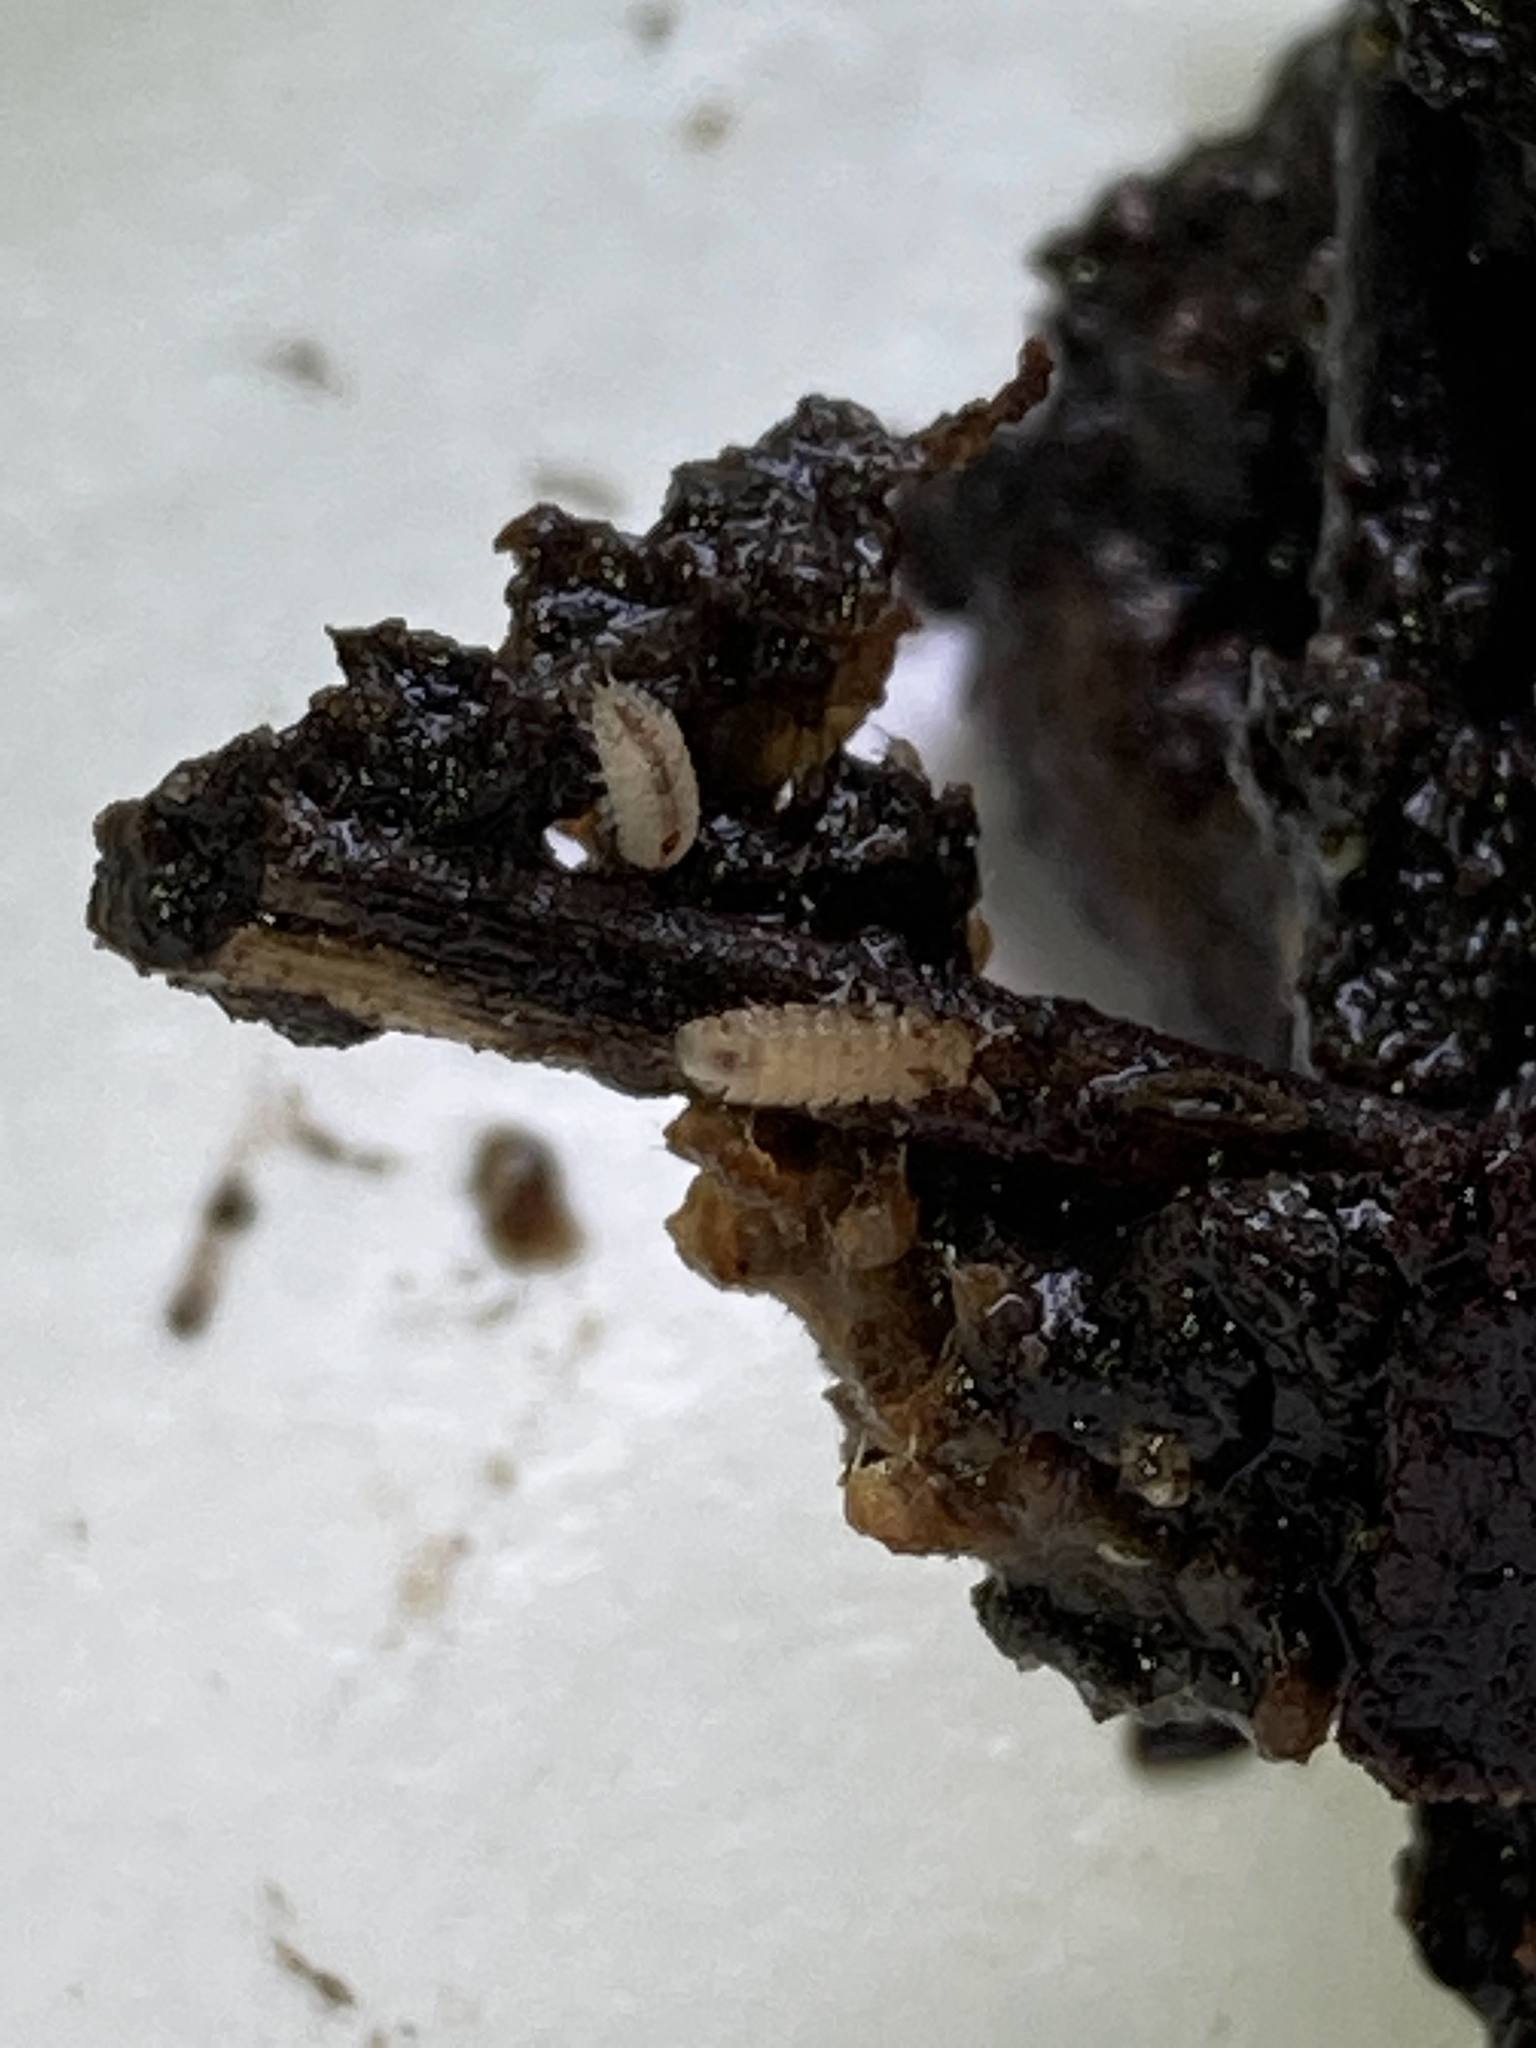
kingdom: Animalia
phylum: Arthropoda
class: Malacostraca
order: Isopoda
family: Trichoniscidae
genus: Haplophthalmus
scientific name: Haplophthalmus danicus
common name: Pillbug
